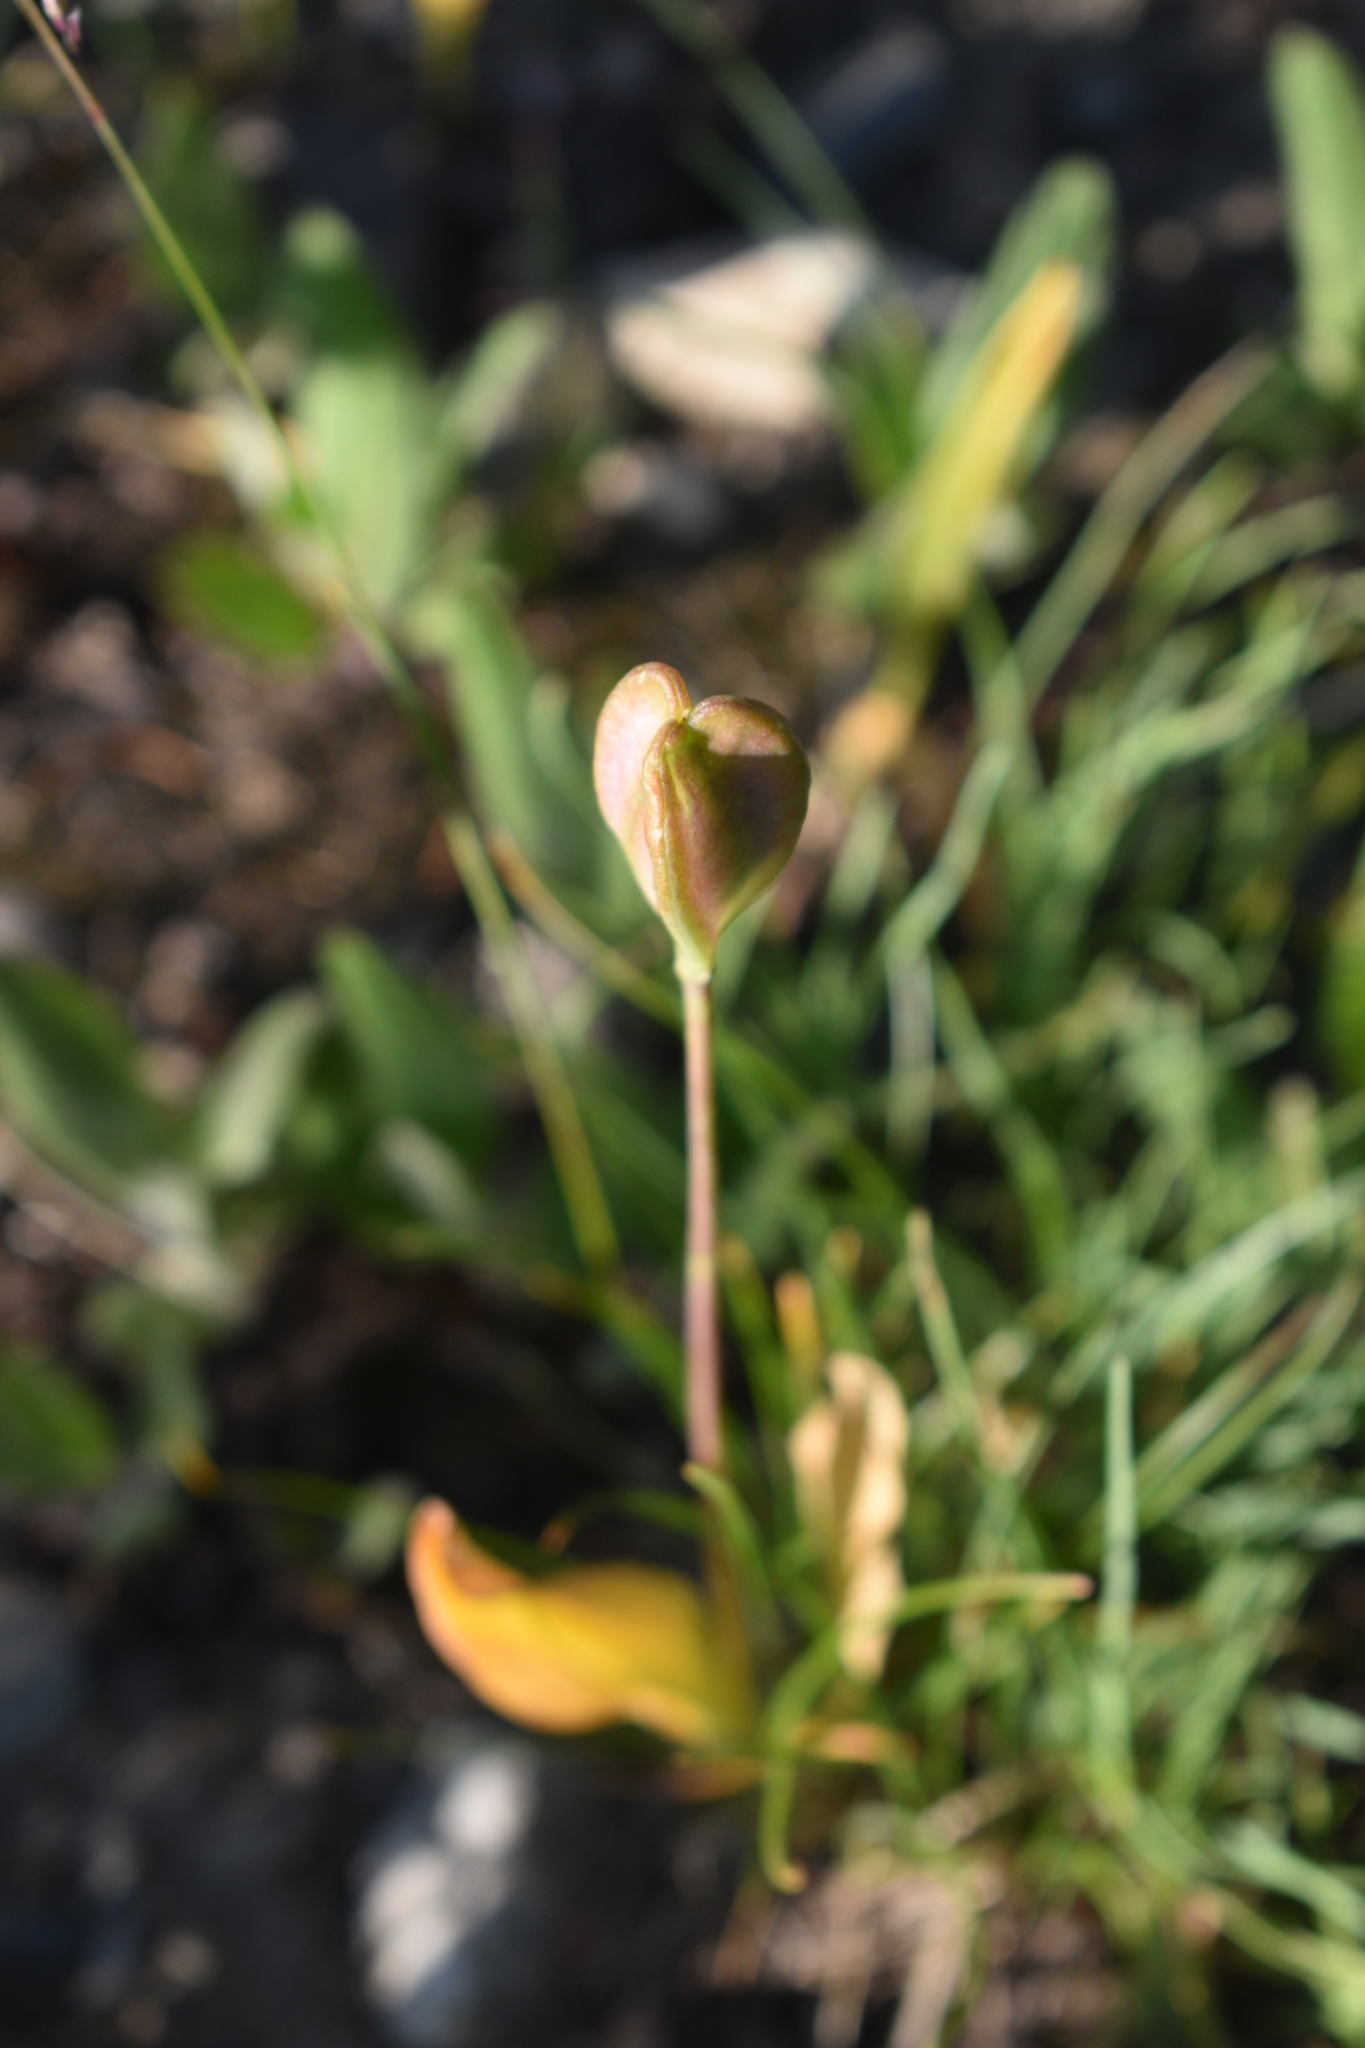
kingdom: Plantae
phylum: Tracheophyta
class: Liliopsida
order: Liliales
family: Liliaceae
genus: Erythronium
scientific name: Erythronium grandiflorum
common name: Avalanche-lily
